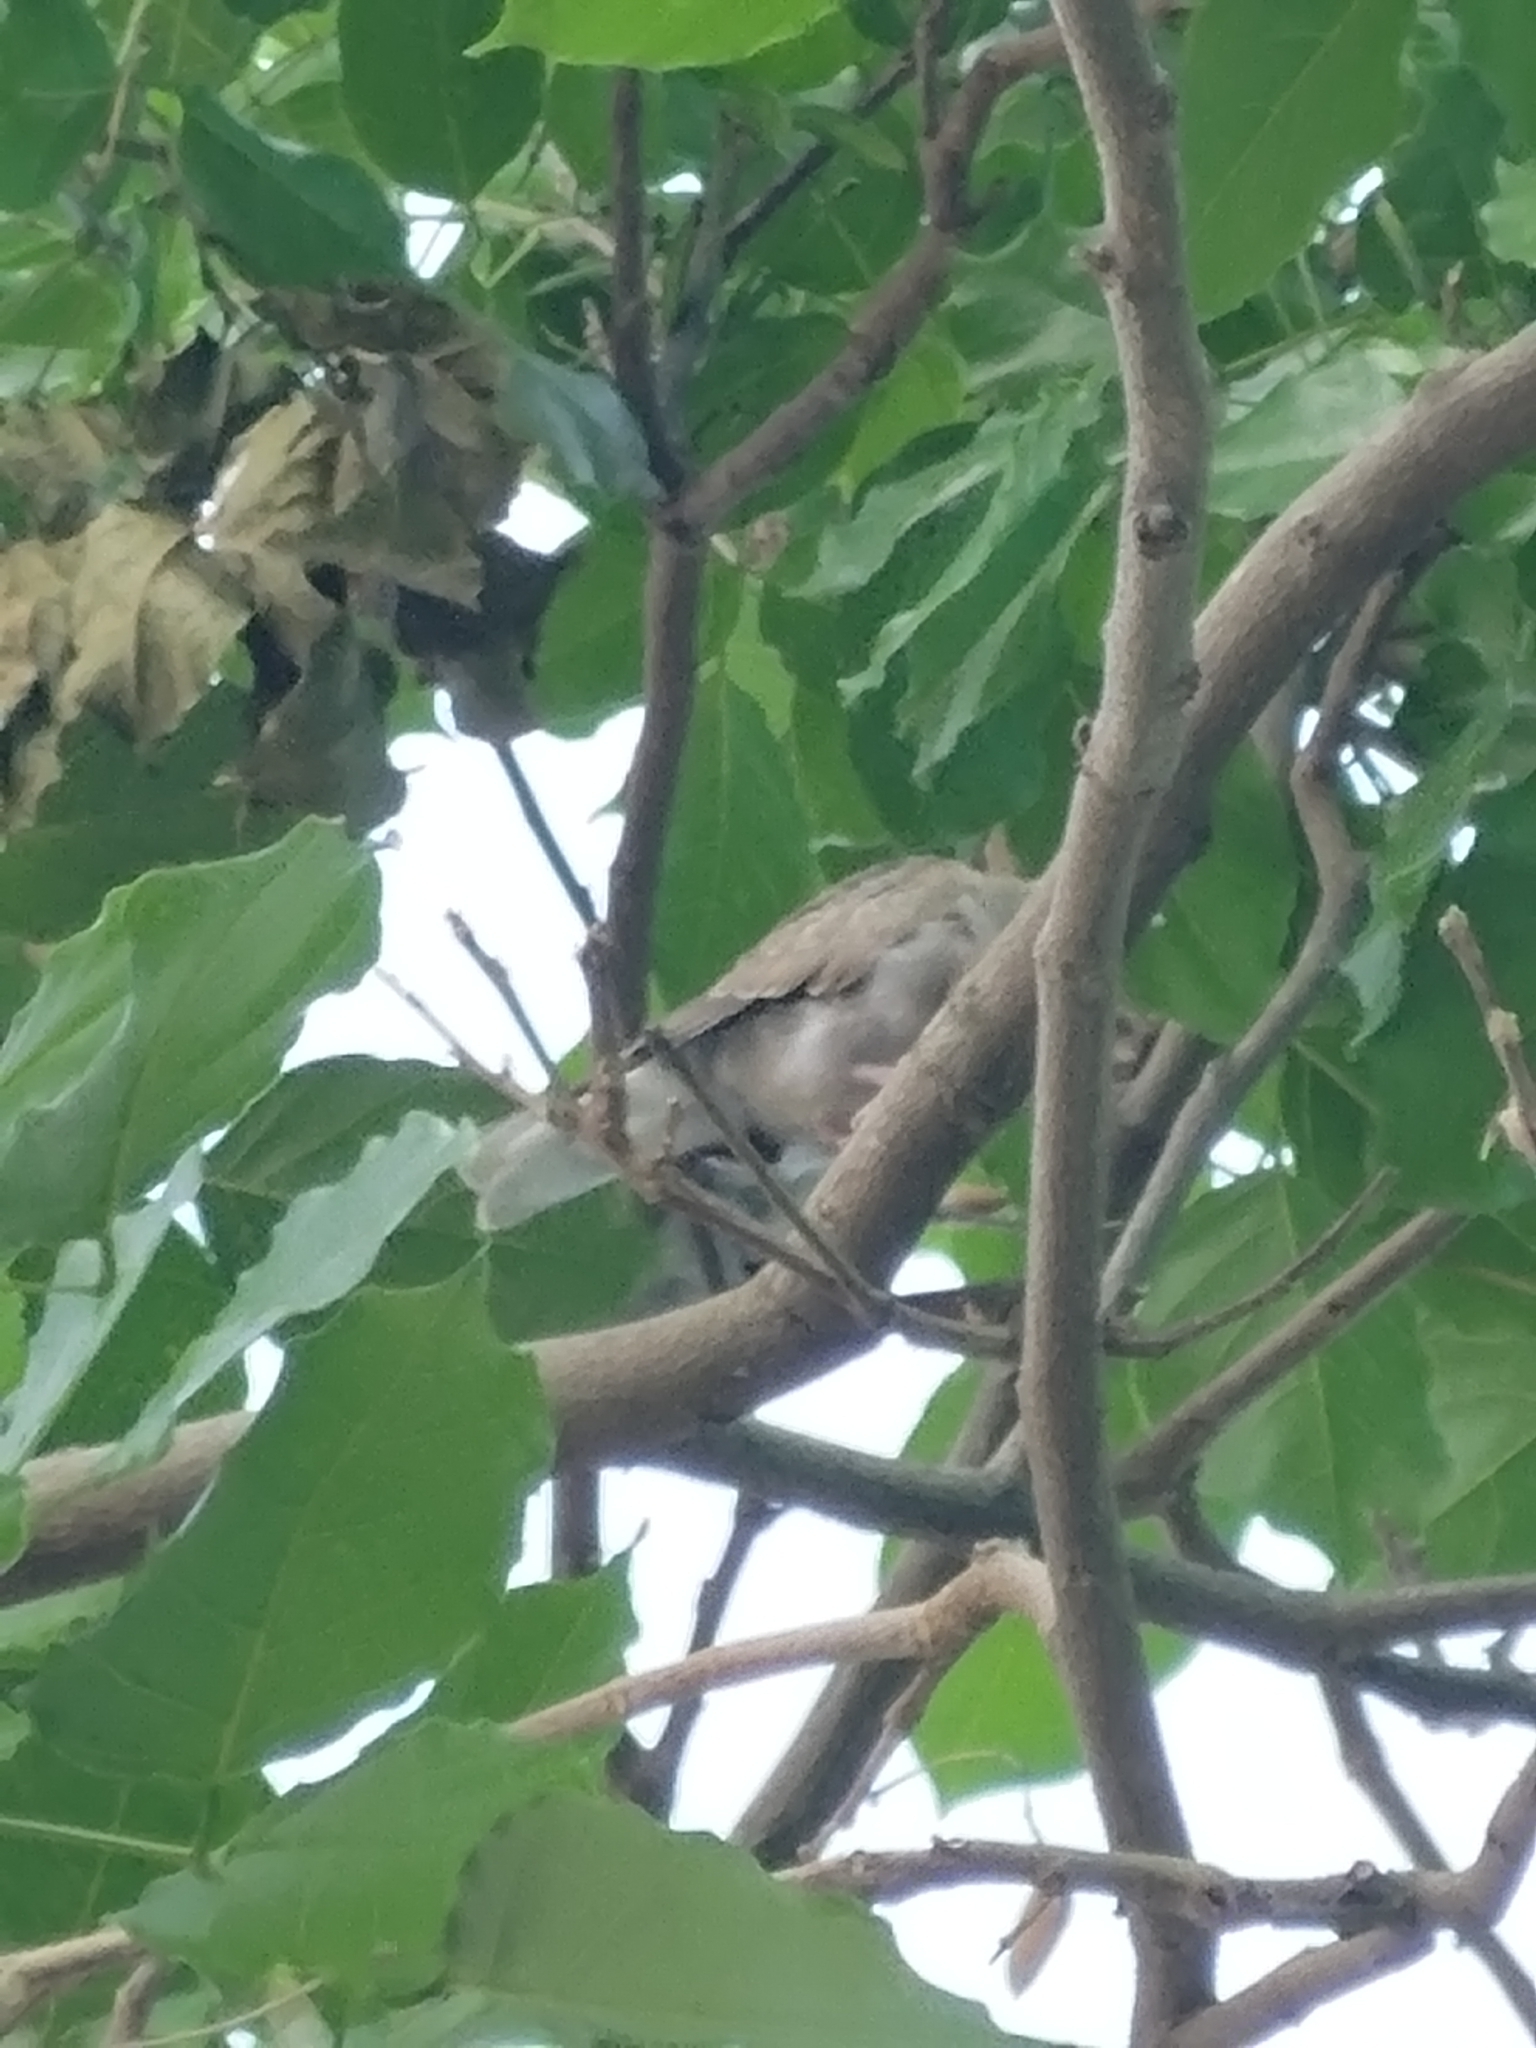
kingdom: Animalia
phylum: Chordata
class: Aves
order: Columbiformes
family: Columbidae
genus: Streptopelia
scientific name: Streptopelia tranquebarica
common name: Red turtle dove
